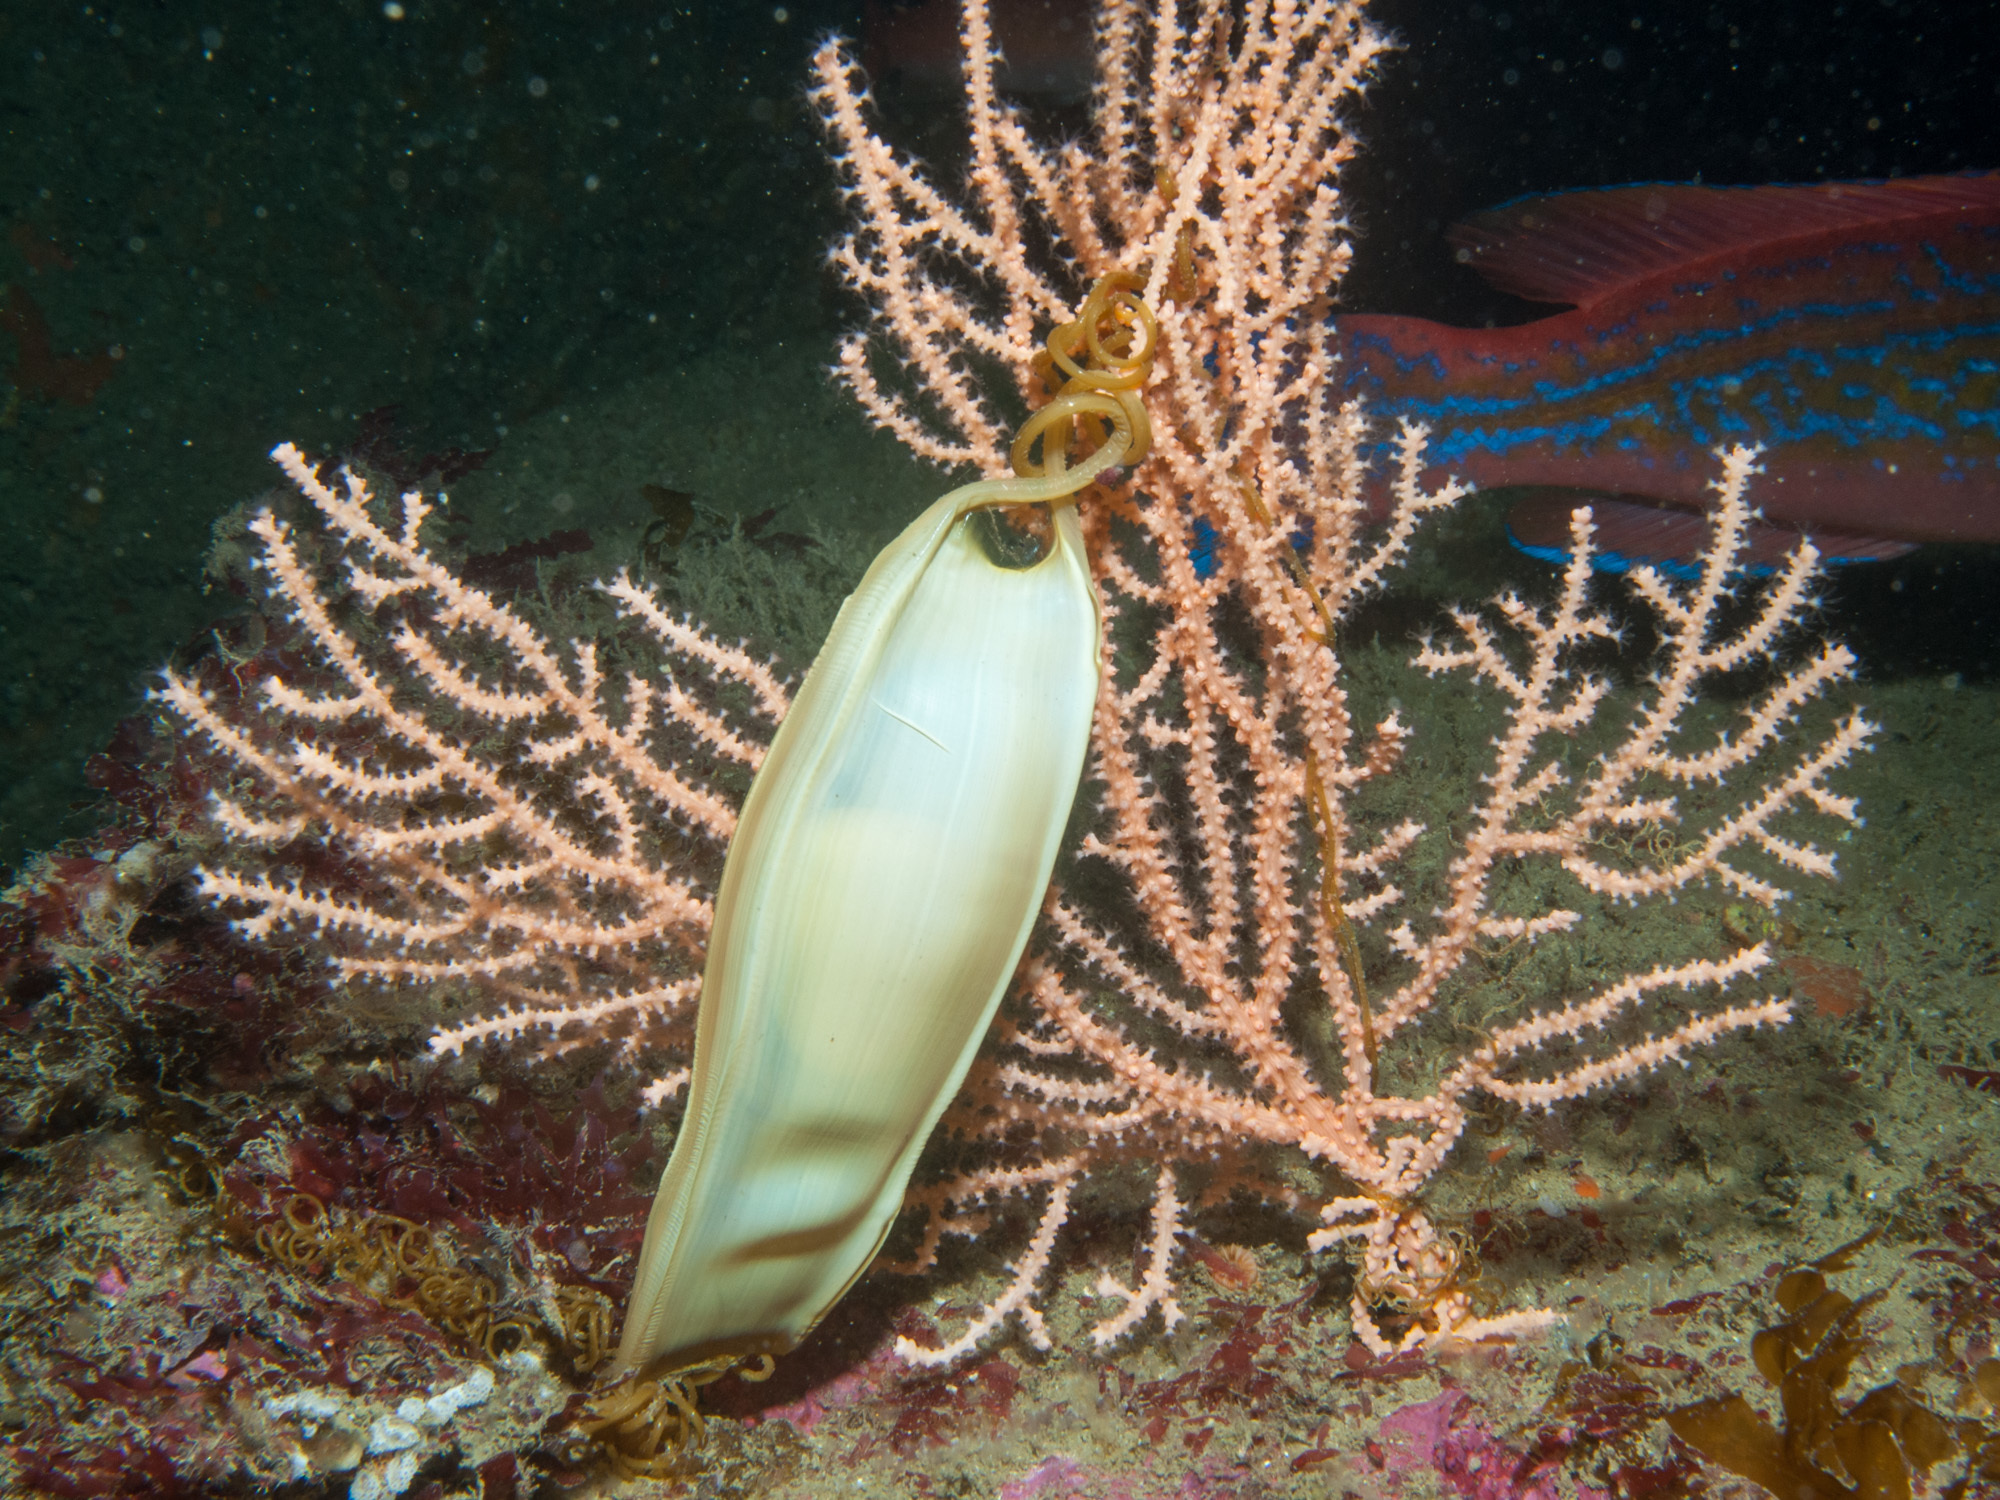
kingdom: Animalia
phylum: Chordata
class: Elasmobranchii
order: Carcharhiniformes
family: Scyliorhinidae
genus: Scyliorhinus
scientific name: Scyliorhinus stellaris
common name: Nursehound
